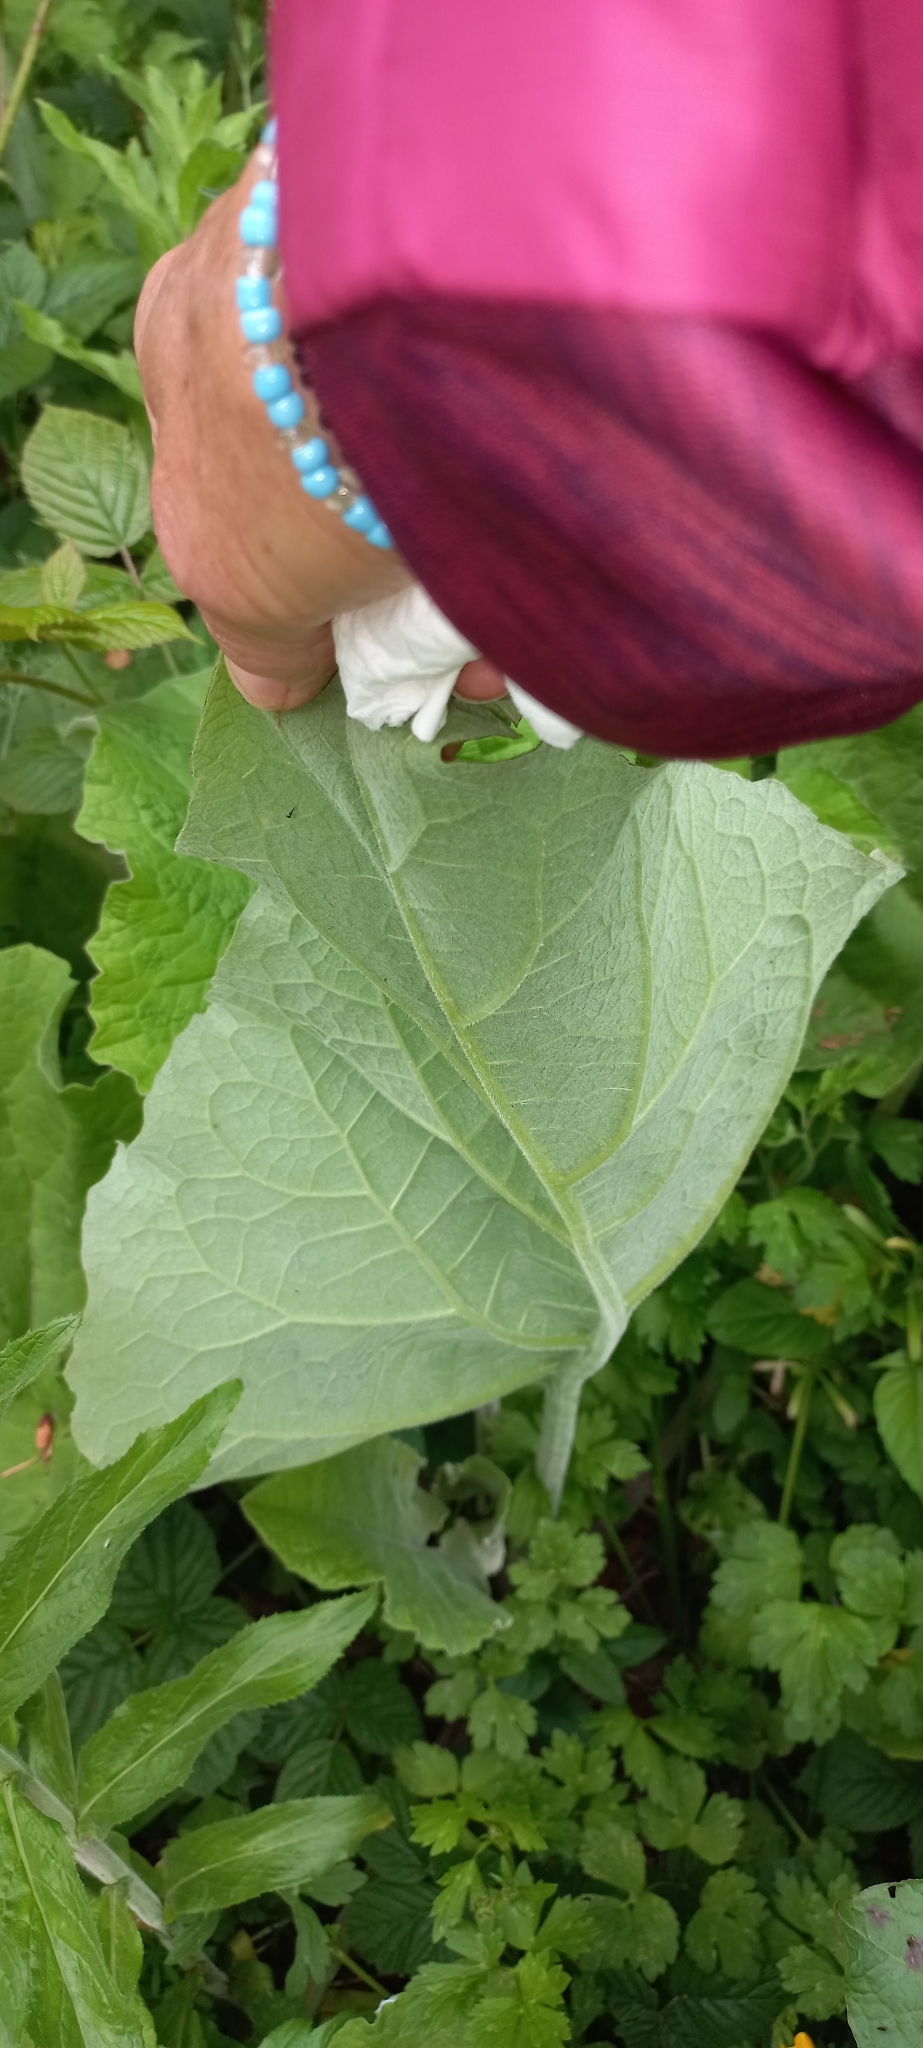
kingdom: Plantae
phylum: Tracheophyta
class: Magnoliopsida
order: Asterales
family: Asteraceae
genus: Arctium
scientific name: Arctium
